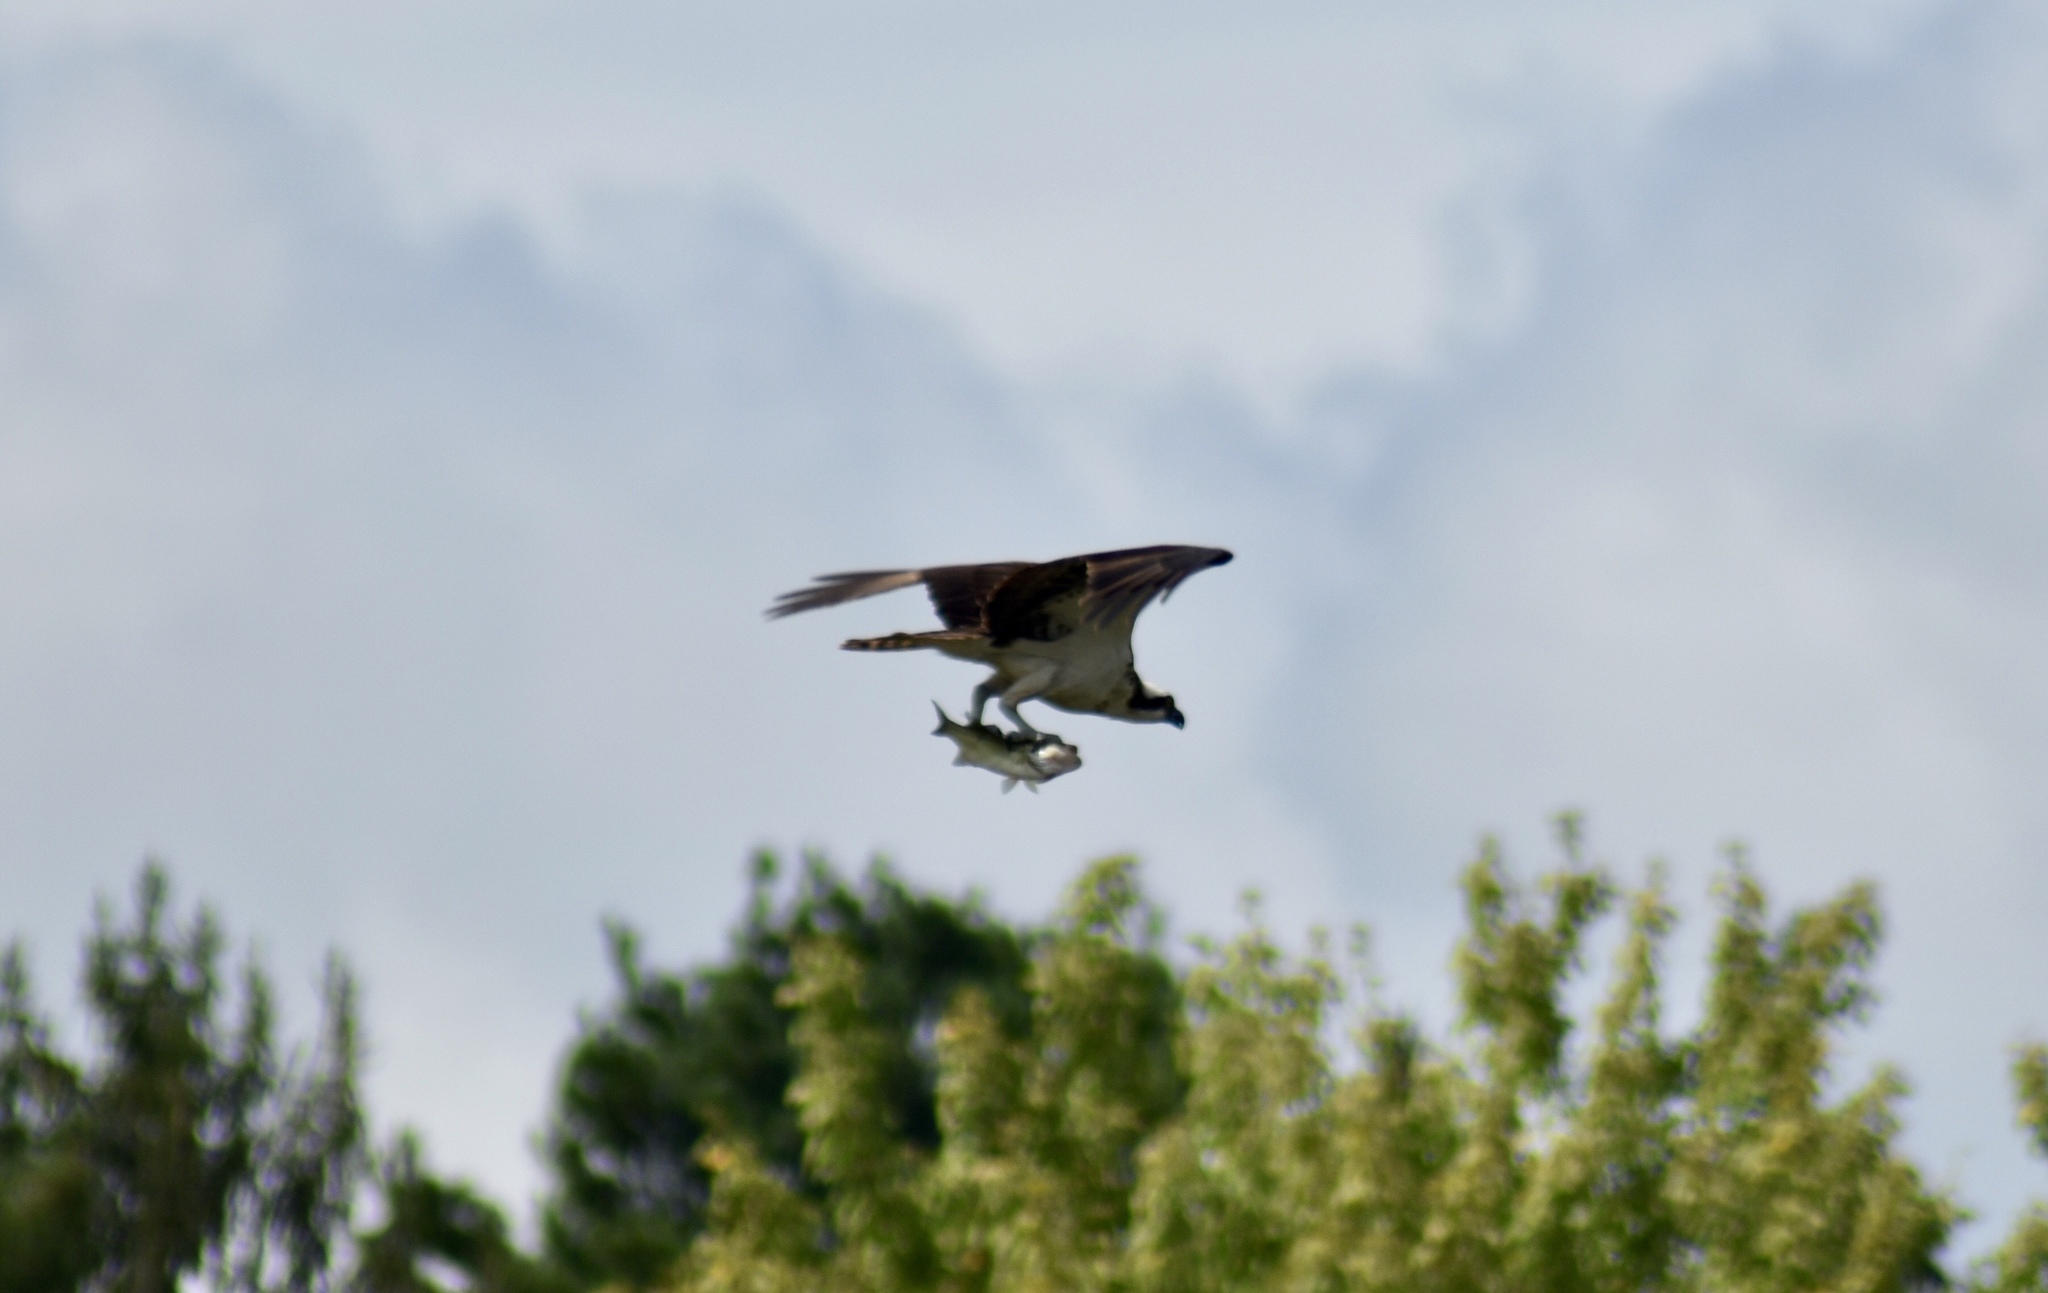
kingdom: Animalia
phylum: Chordata
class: Aves
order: Accipitriformes
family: Pandionidae
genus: Pandion
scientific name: Pandion haliaetus
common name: Osprey
